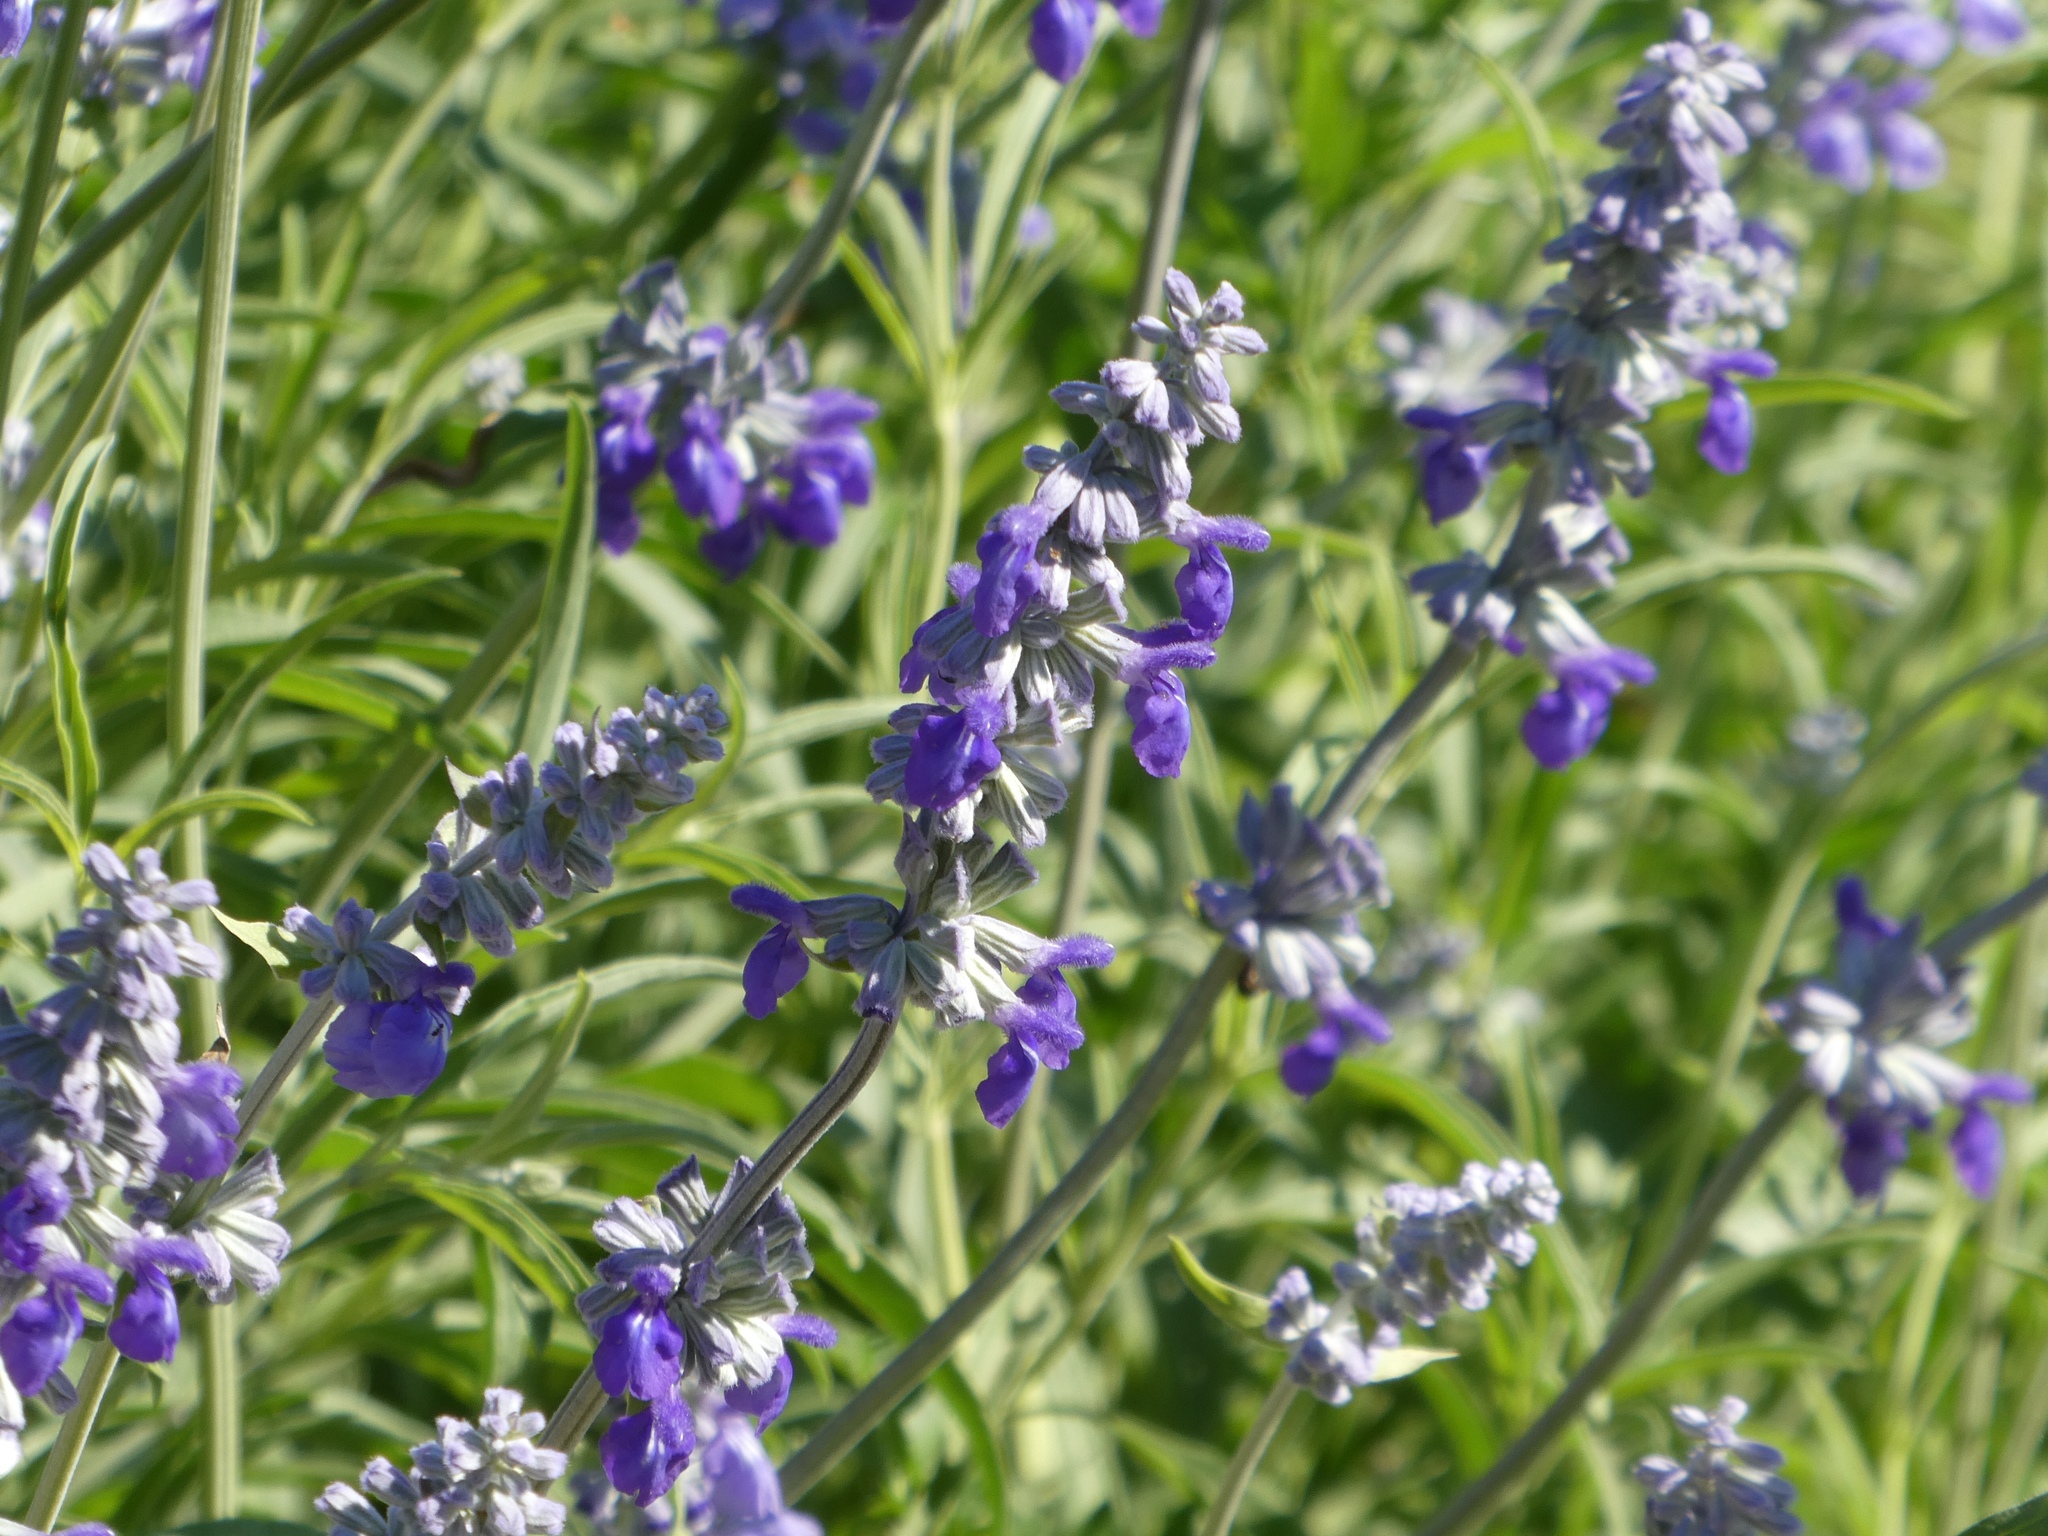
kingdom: Plantae
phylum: Tracheophyta
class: Magnoliopsida
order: Lamiales
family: Lamiaceae
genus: Salvia
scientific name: Salvia farinacea
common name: Mealy sage
